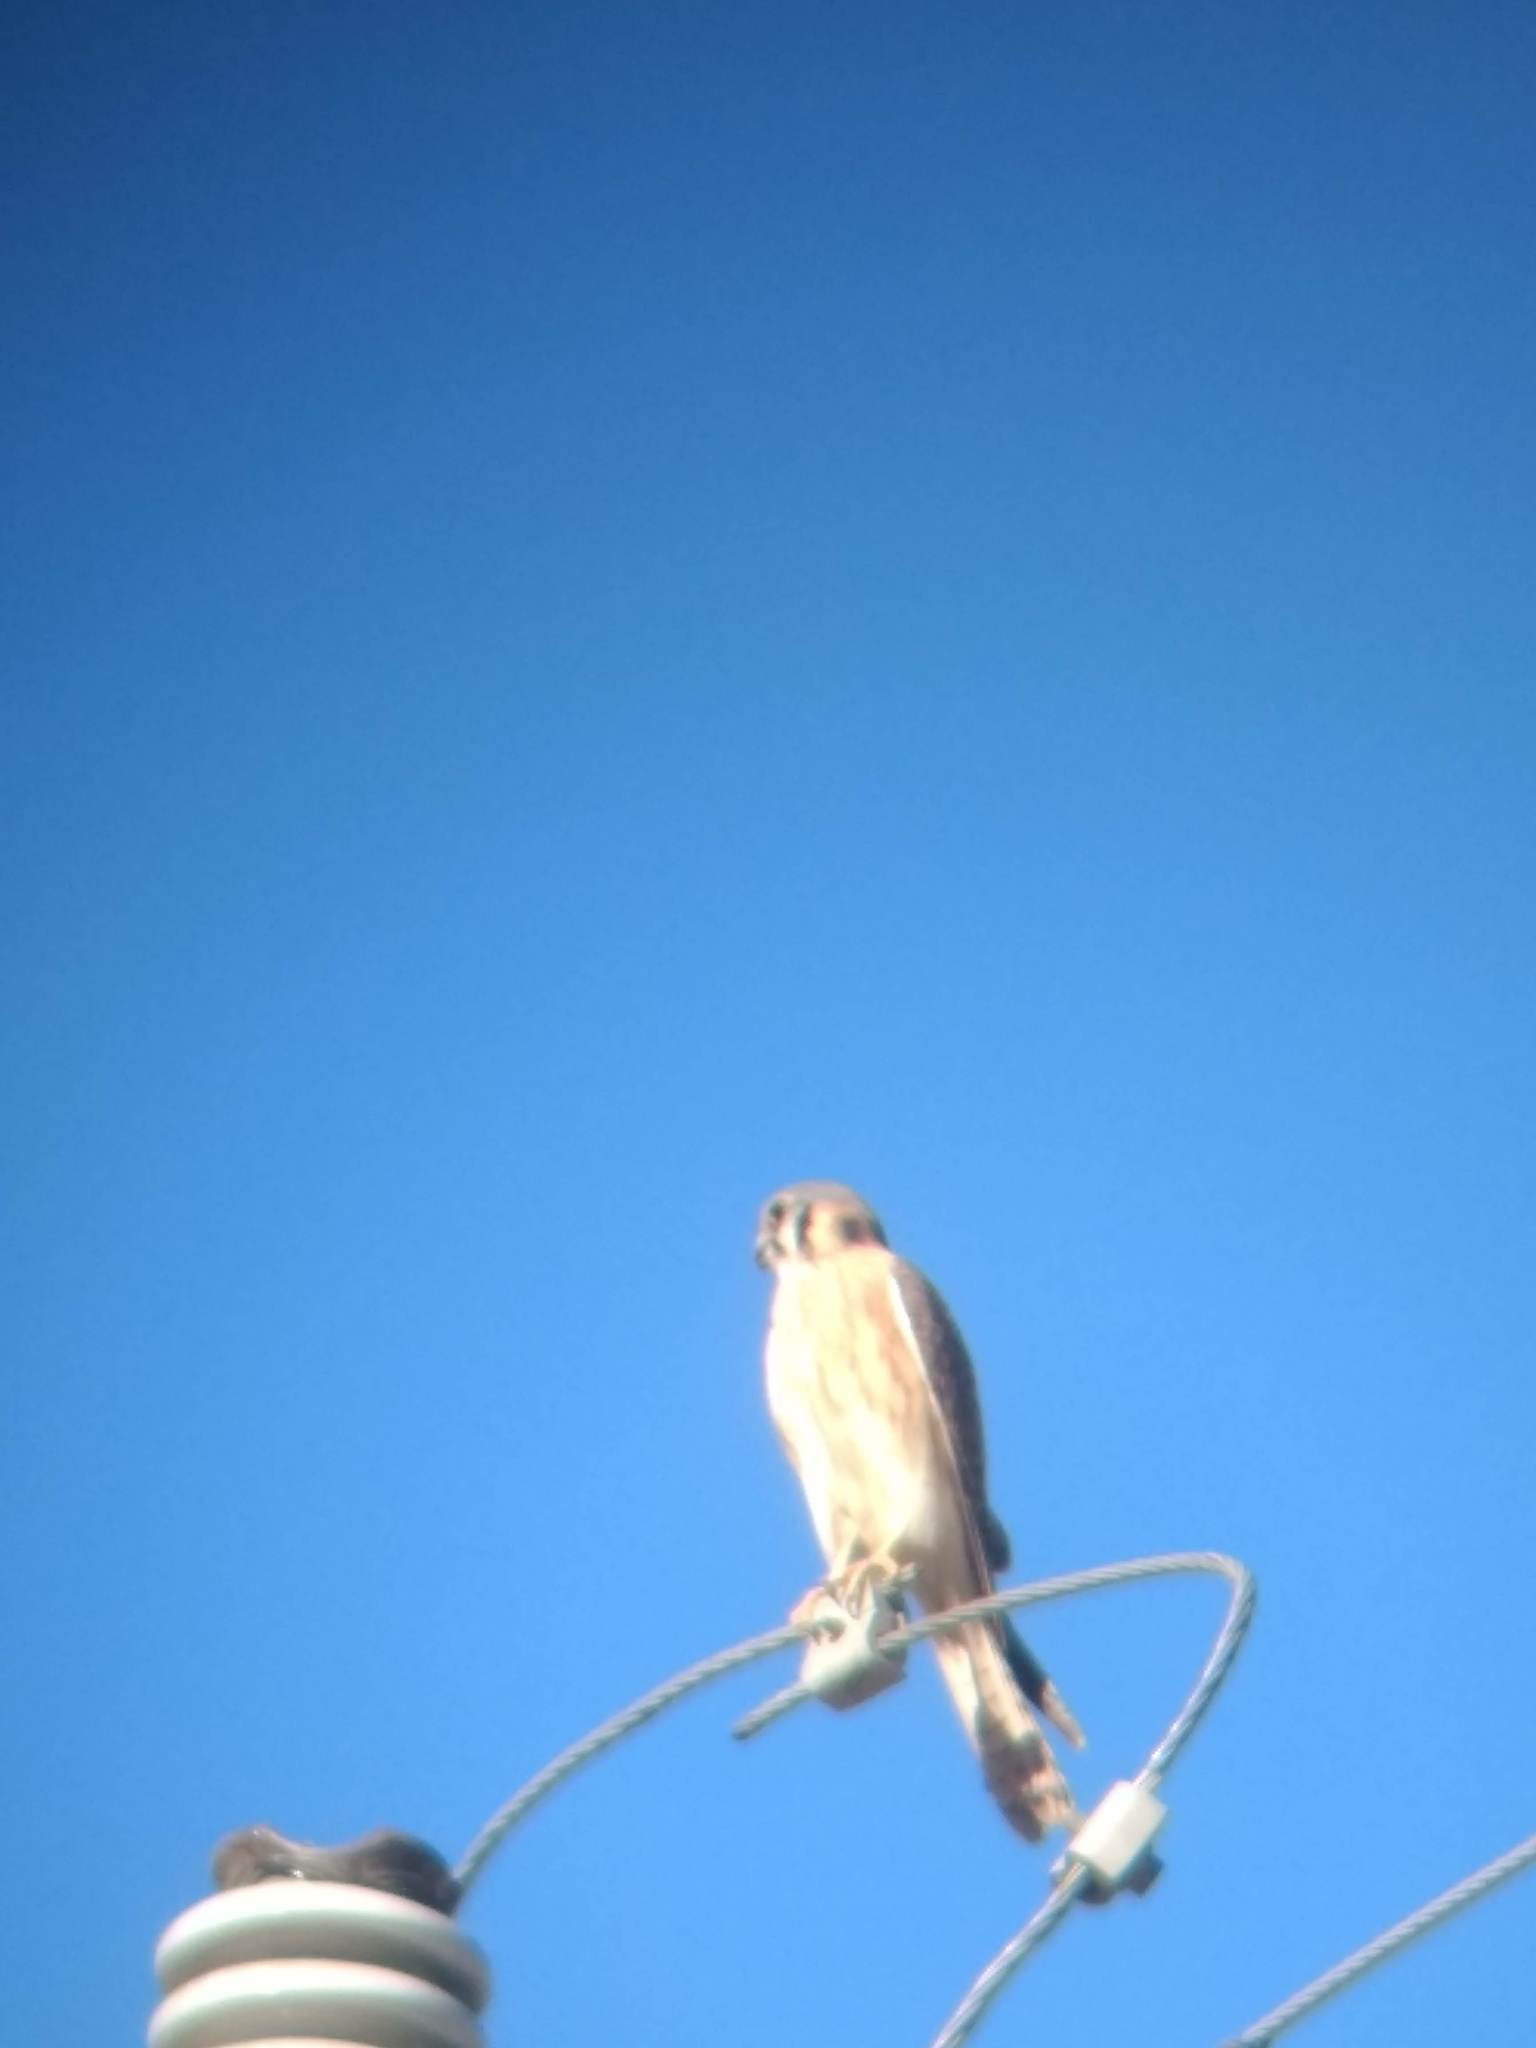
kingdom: Animalia
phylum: Chordata
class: Aves
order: Falconiformes
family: Falconidae
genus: Falco
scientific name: Falco sparverius
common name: American kestrel
